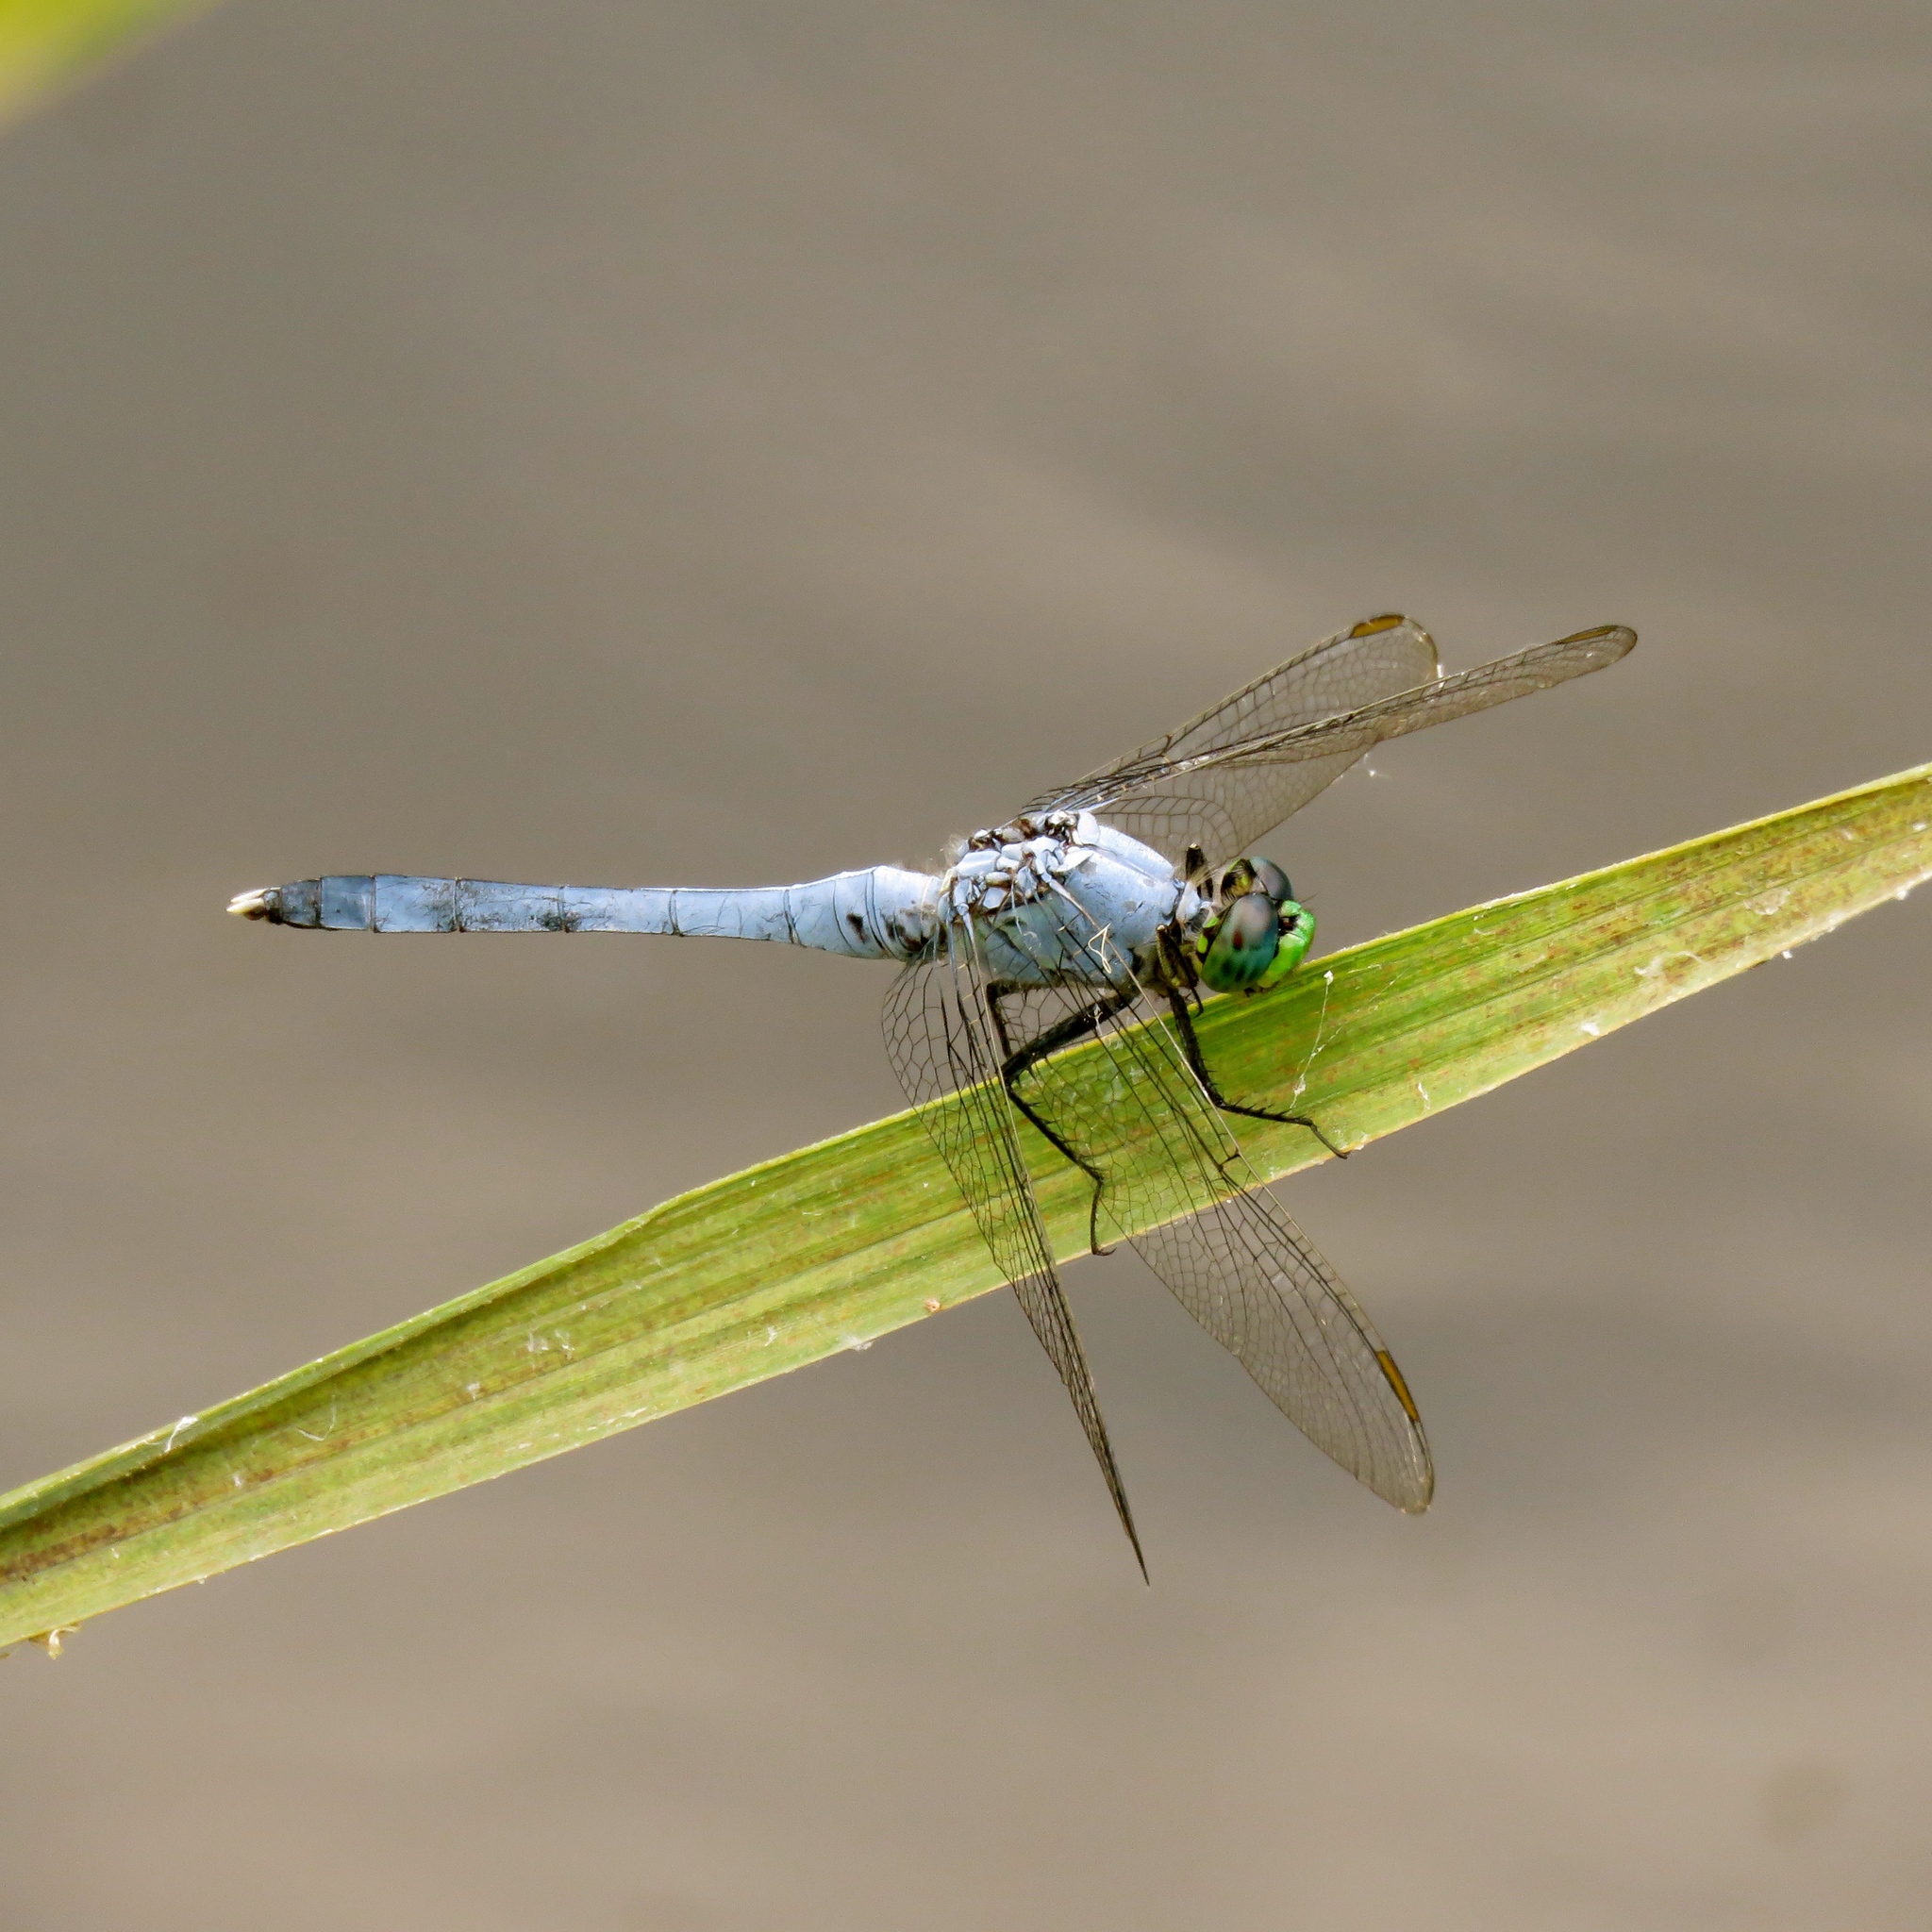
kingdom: Animalia
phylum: Arthropoda
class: Insecta
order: Odonata
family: Libellulidae
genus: Erythemis
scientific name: Erythemis simplicicollis
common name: Eastern pondhawk
